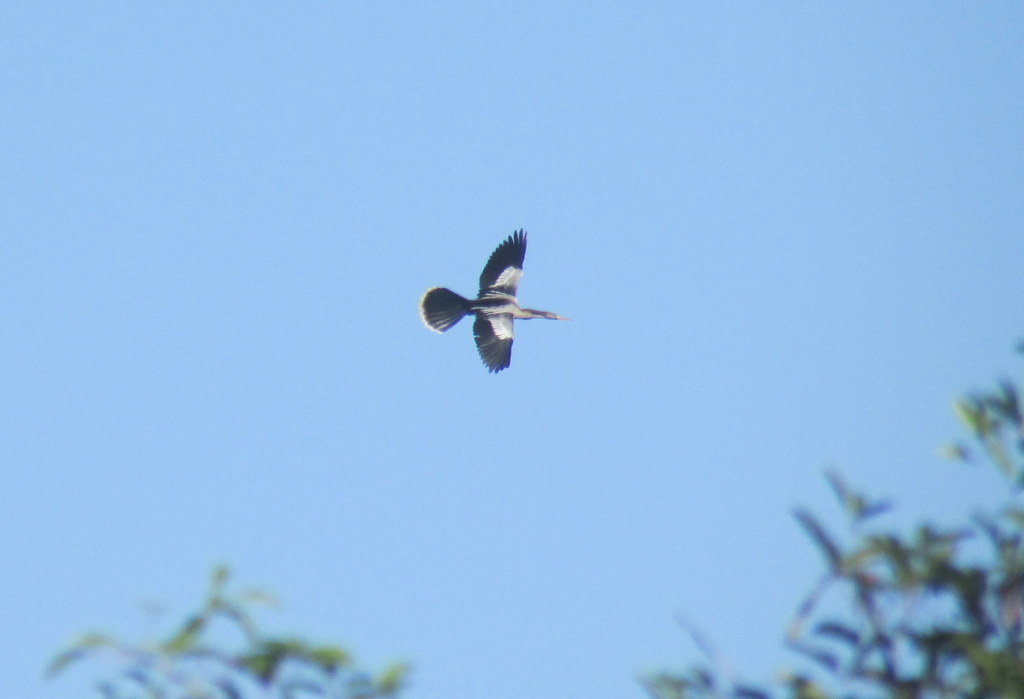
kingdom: Animalia
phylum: Chordata
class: Aves
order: Suliformes
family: Anhingidae
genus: Anhinga
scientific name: Anhinga anhinga
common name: Anhinga
